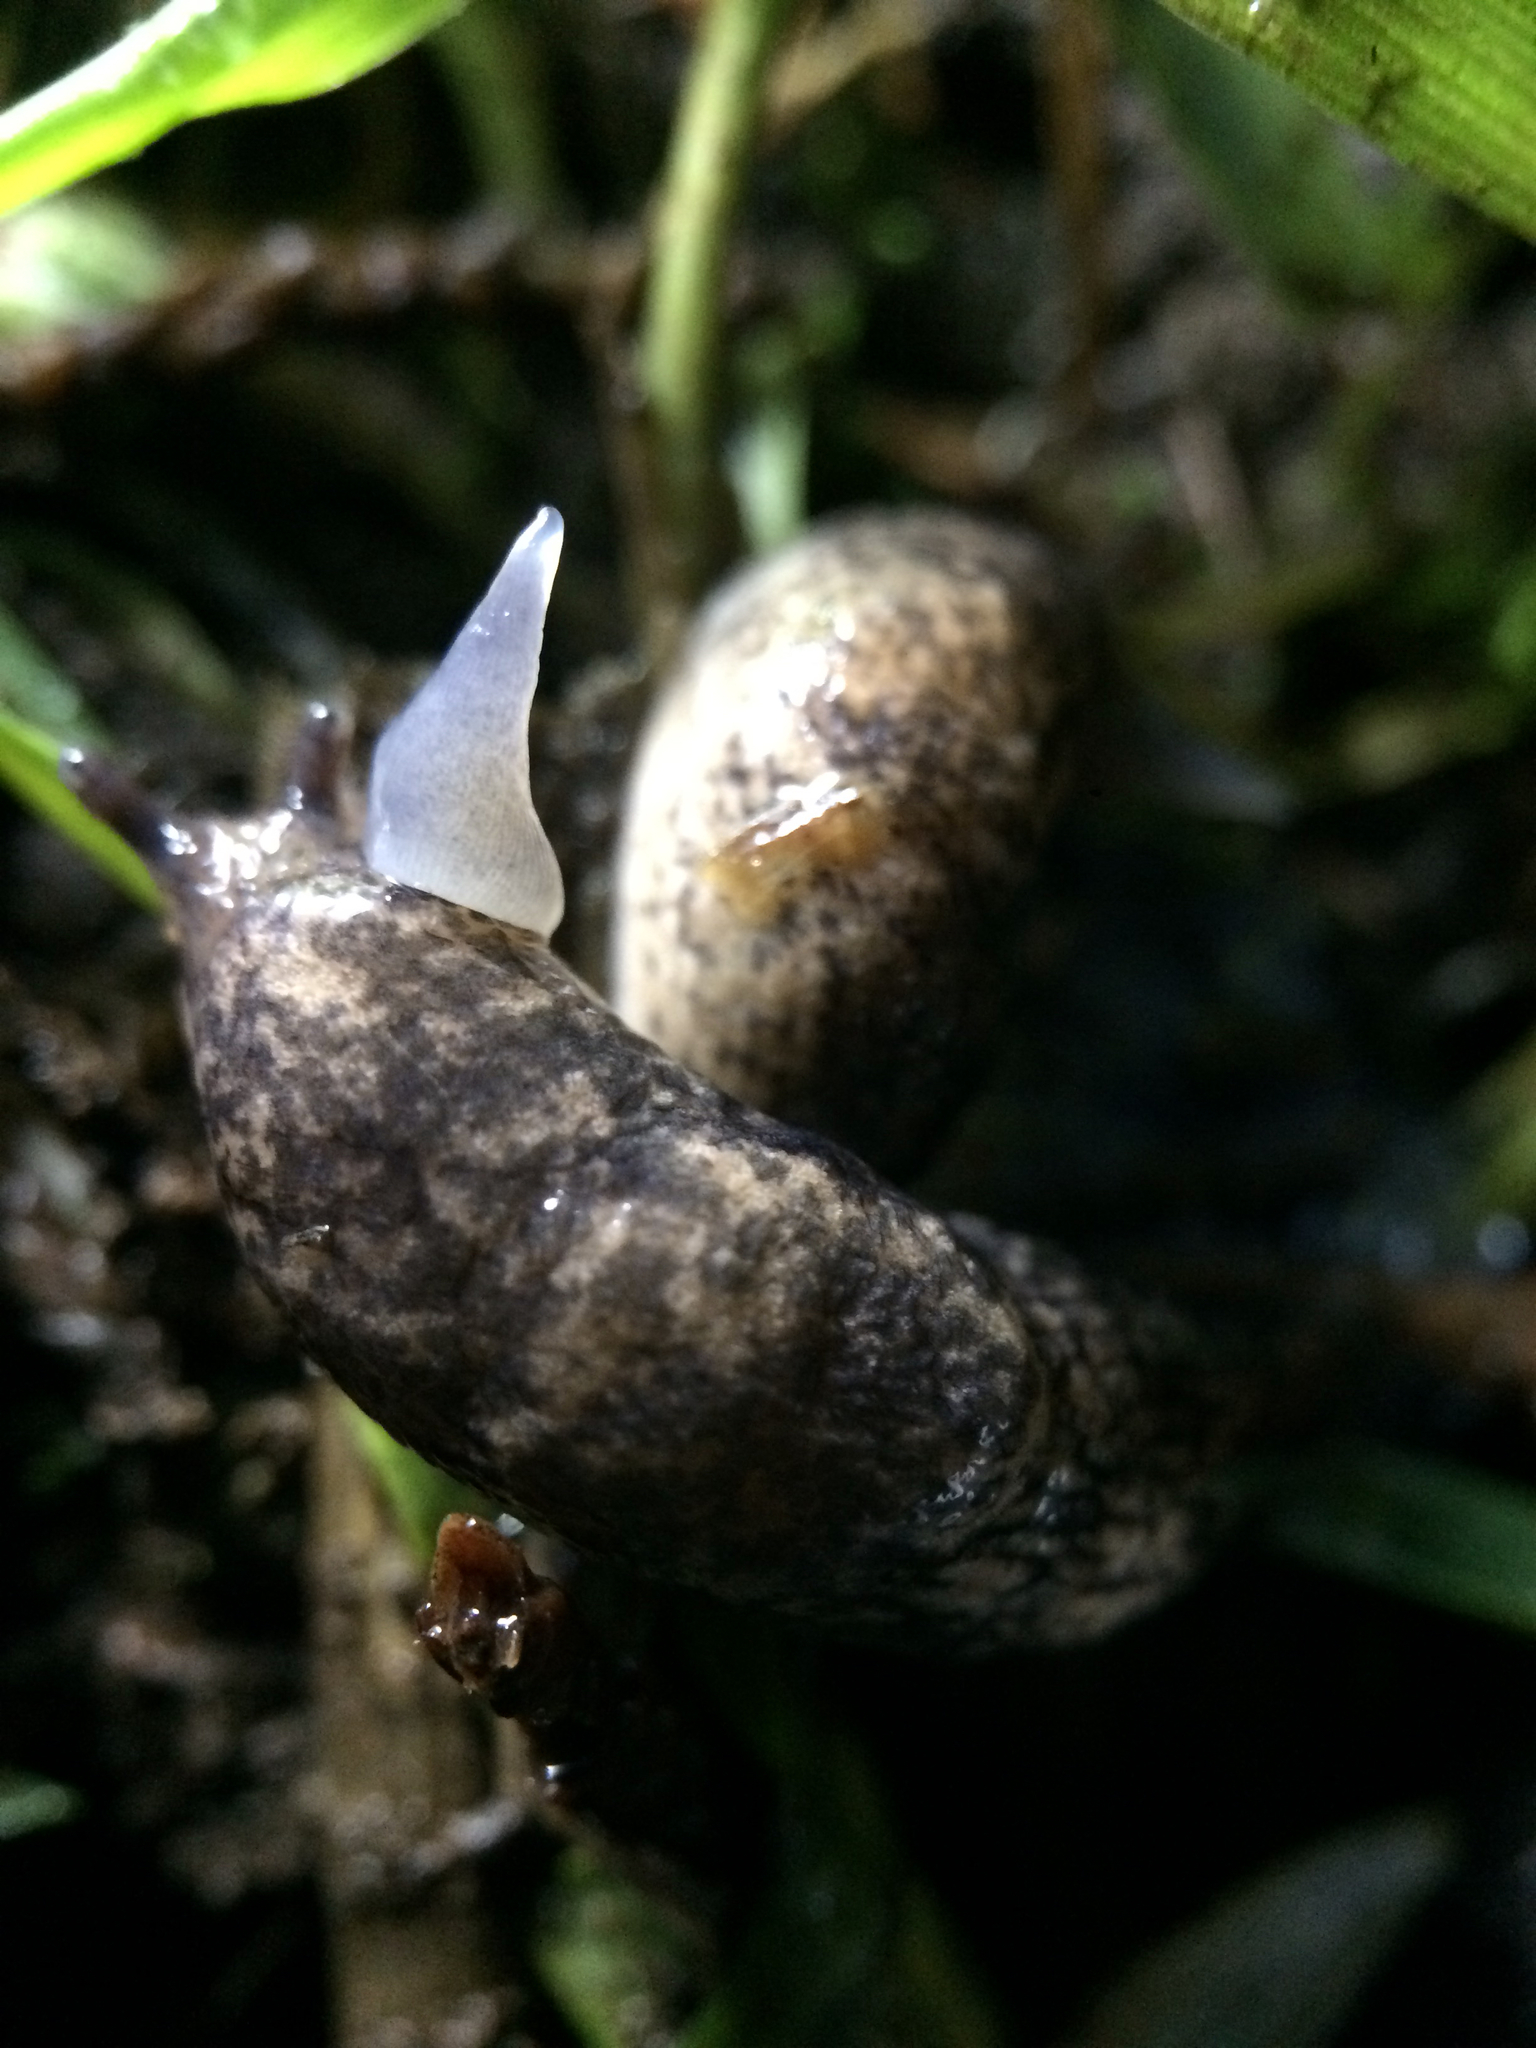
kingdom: Animalia
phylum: Mollusca
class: Gastropoda
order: Stylommatophora
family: Agriolimacidae
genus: Deroceras
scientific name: Deroceras reticulatum
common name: Gray field slug
